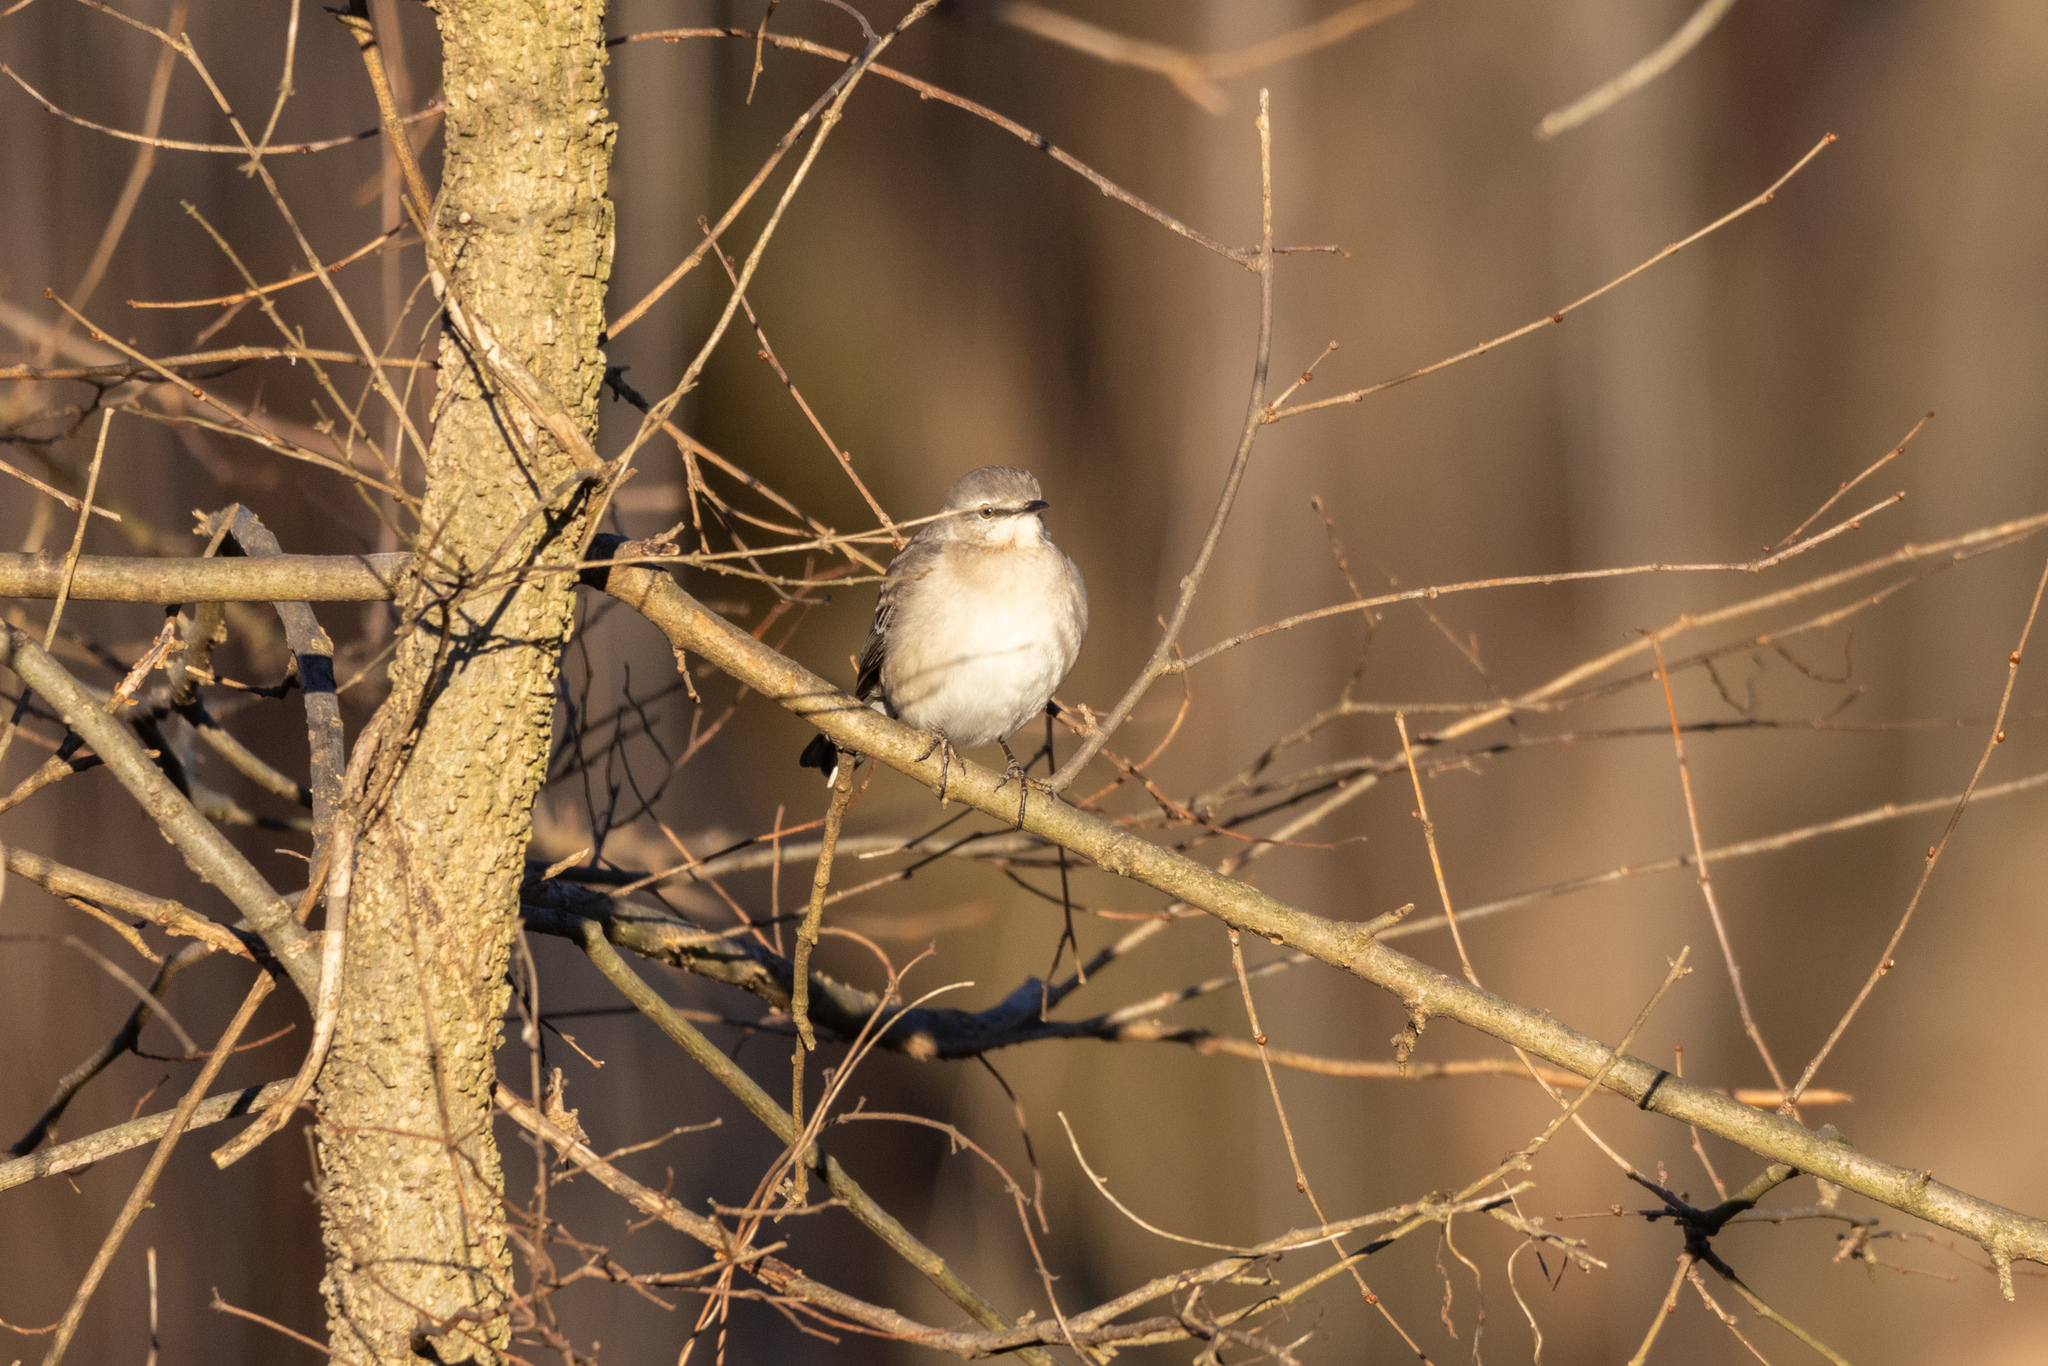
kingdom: Animalia
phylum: Chordata
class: Aves
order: Passeriformes
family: Mimidae
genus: Mimus
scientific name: Mimus polyglottos
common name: Northern mockingbird
